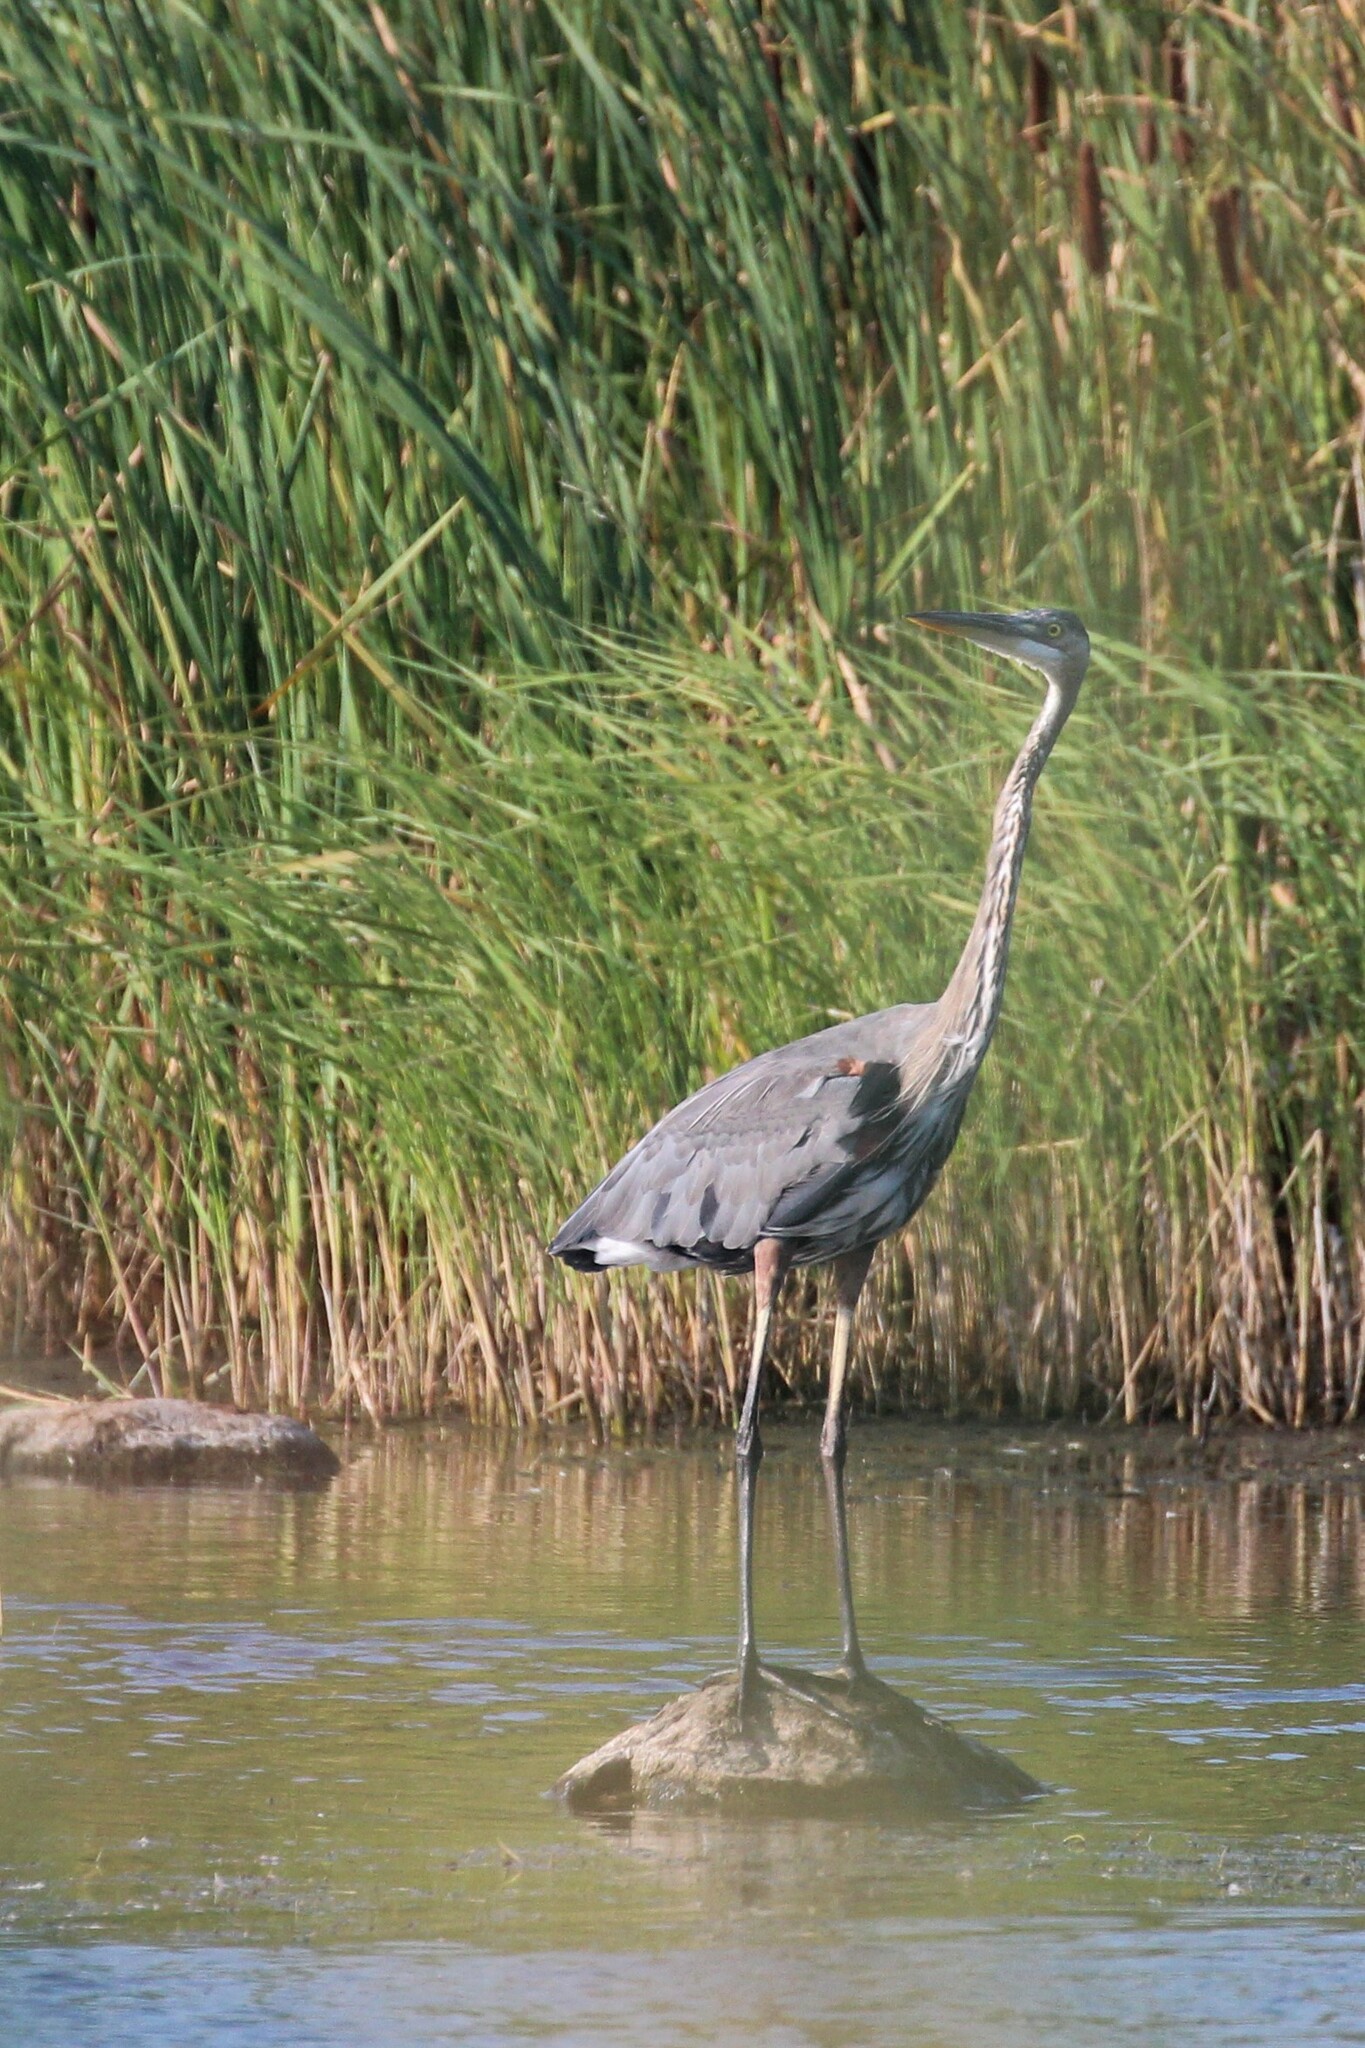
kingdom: Animalia
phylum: Chordata
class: Aves
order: Pelecaniformes
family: Ardeidae
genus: Ardea
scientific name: Ardea herodias
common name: Great blue heron
